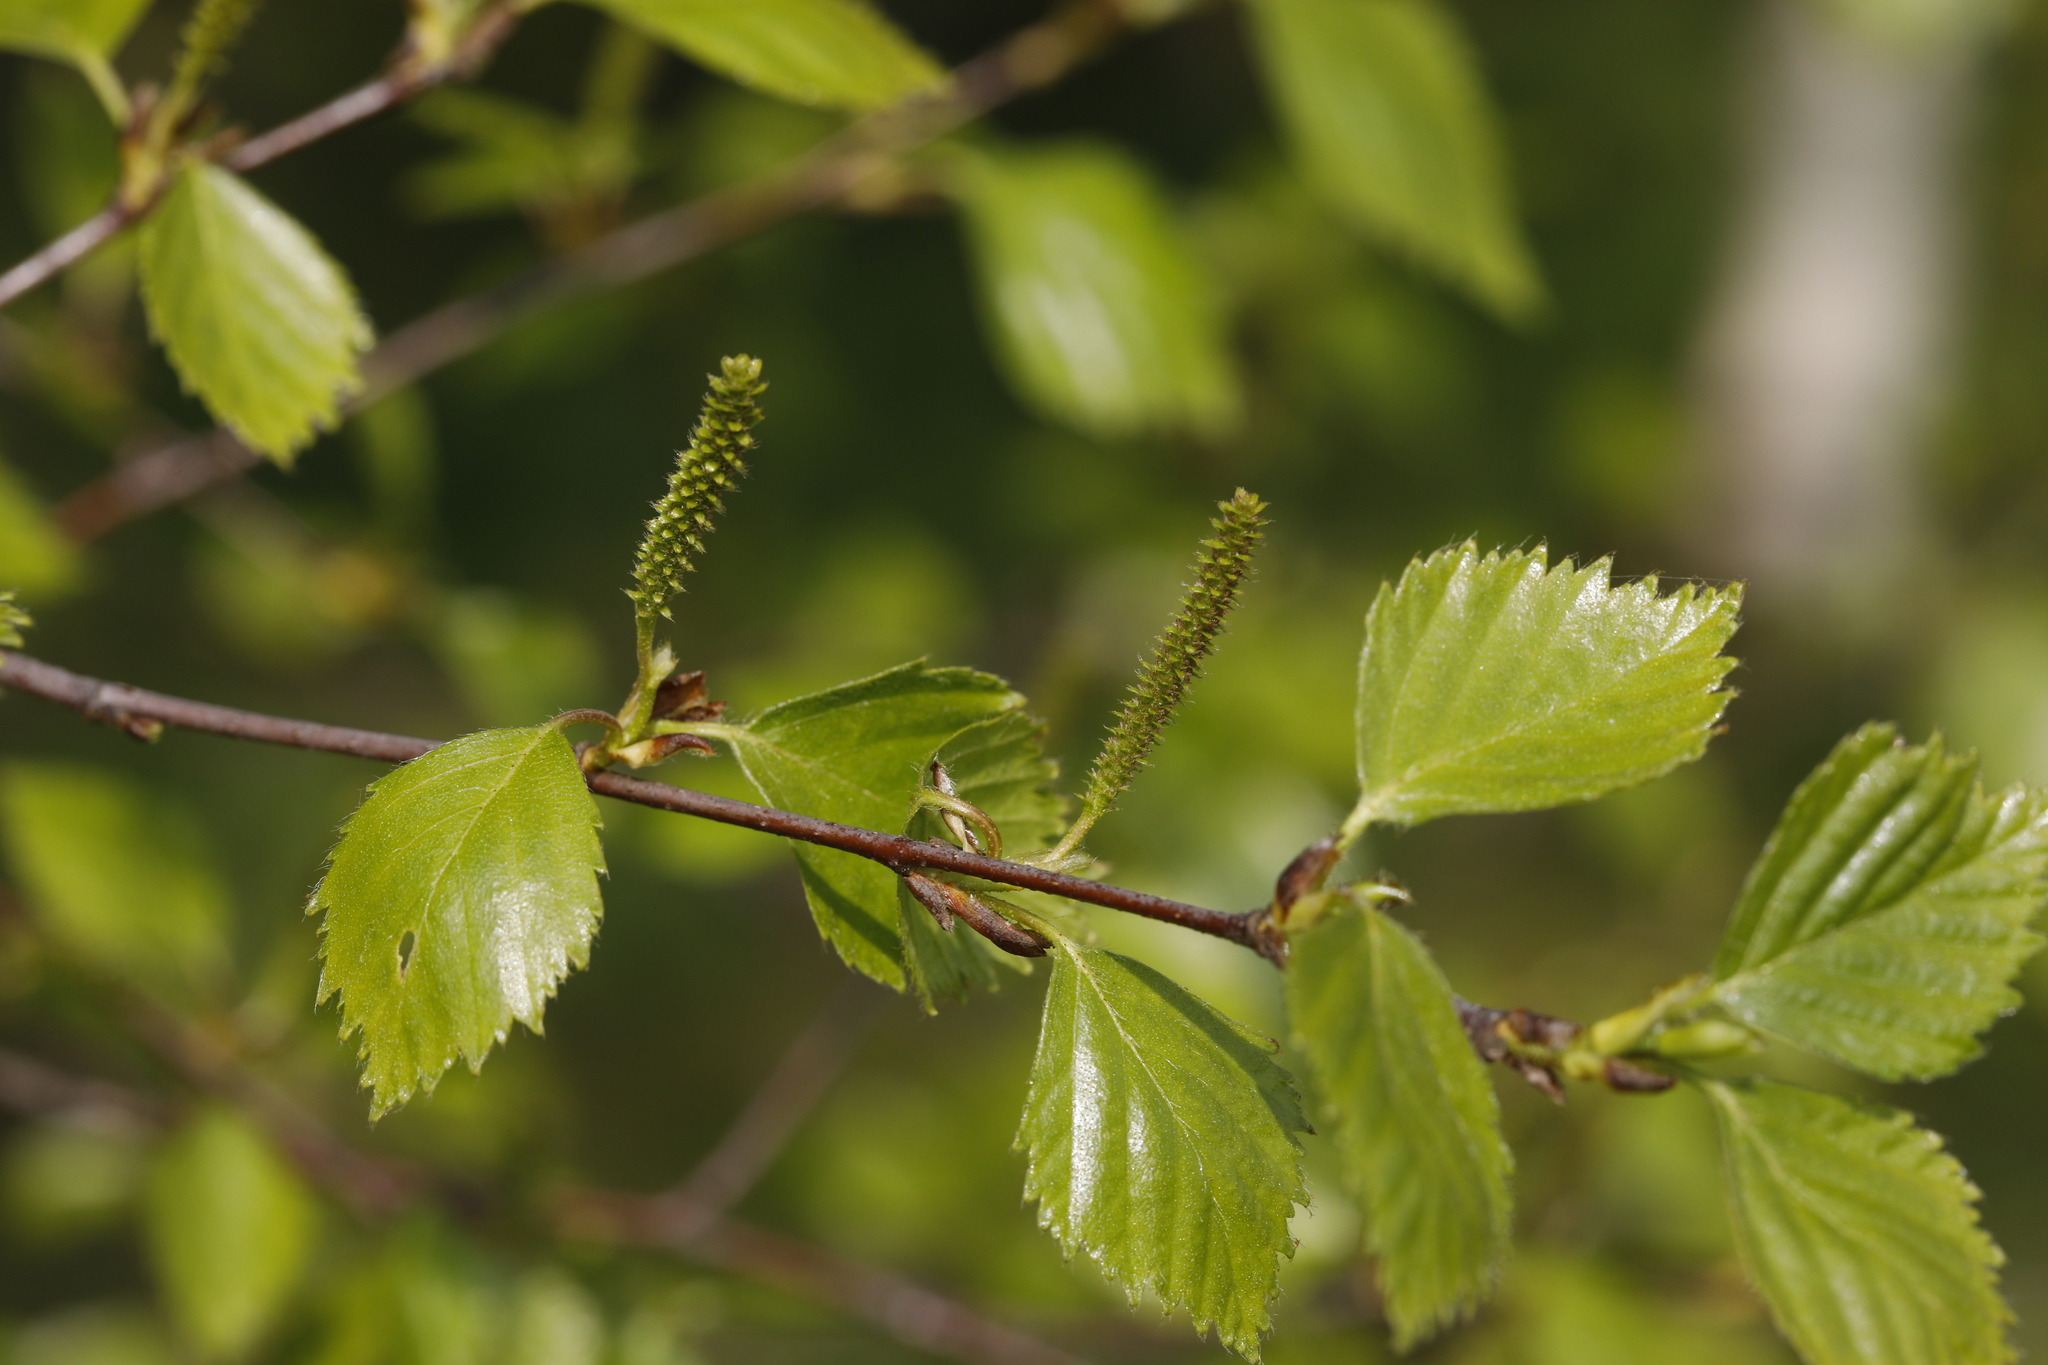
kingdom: Plantae
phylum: Tracheophyta
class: Magnoliopsida
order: Fagales
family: Betulaceae
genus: Betula
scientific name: Betula pendula
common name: Silver birch
